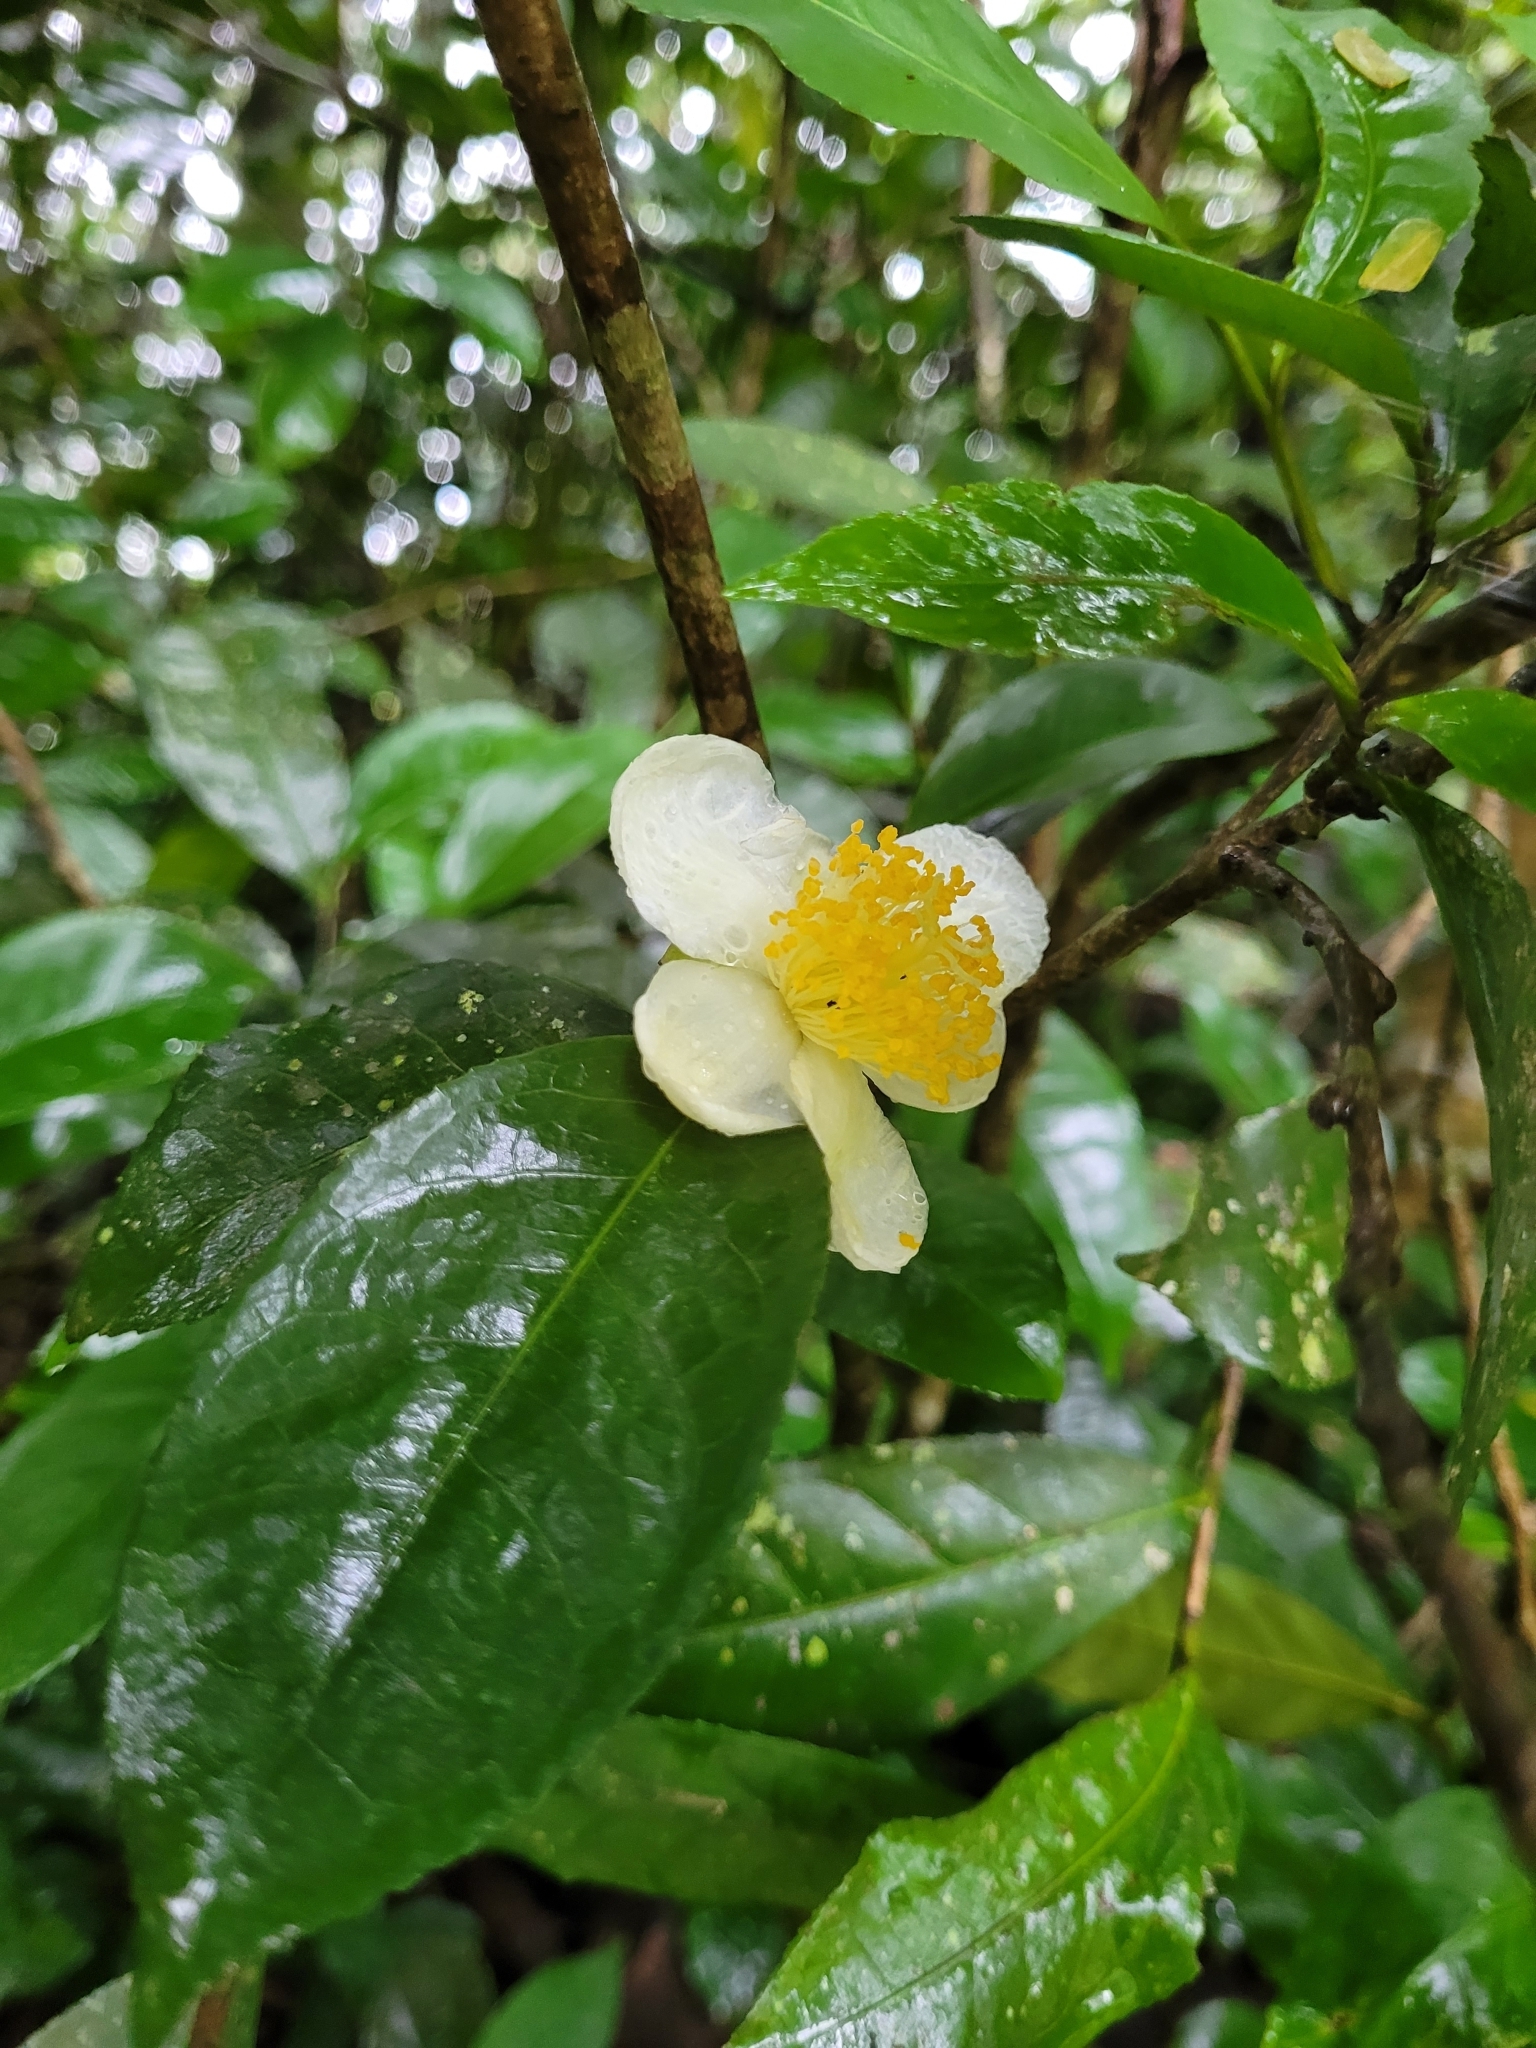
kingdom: Plantae
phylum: Tracheophyta
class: Magnoliopsida
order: Ericales
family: Theaceae
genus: Camellia
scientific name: Camellia sinensis
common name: Tea
